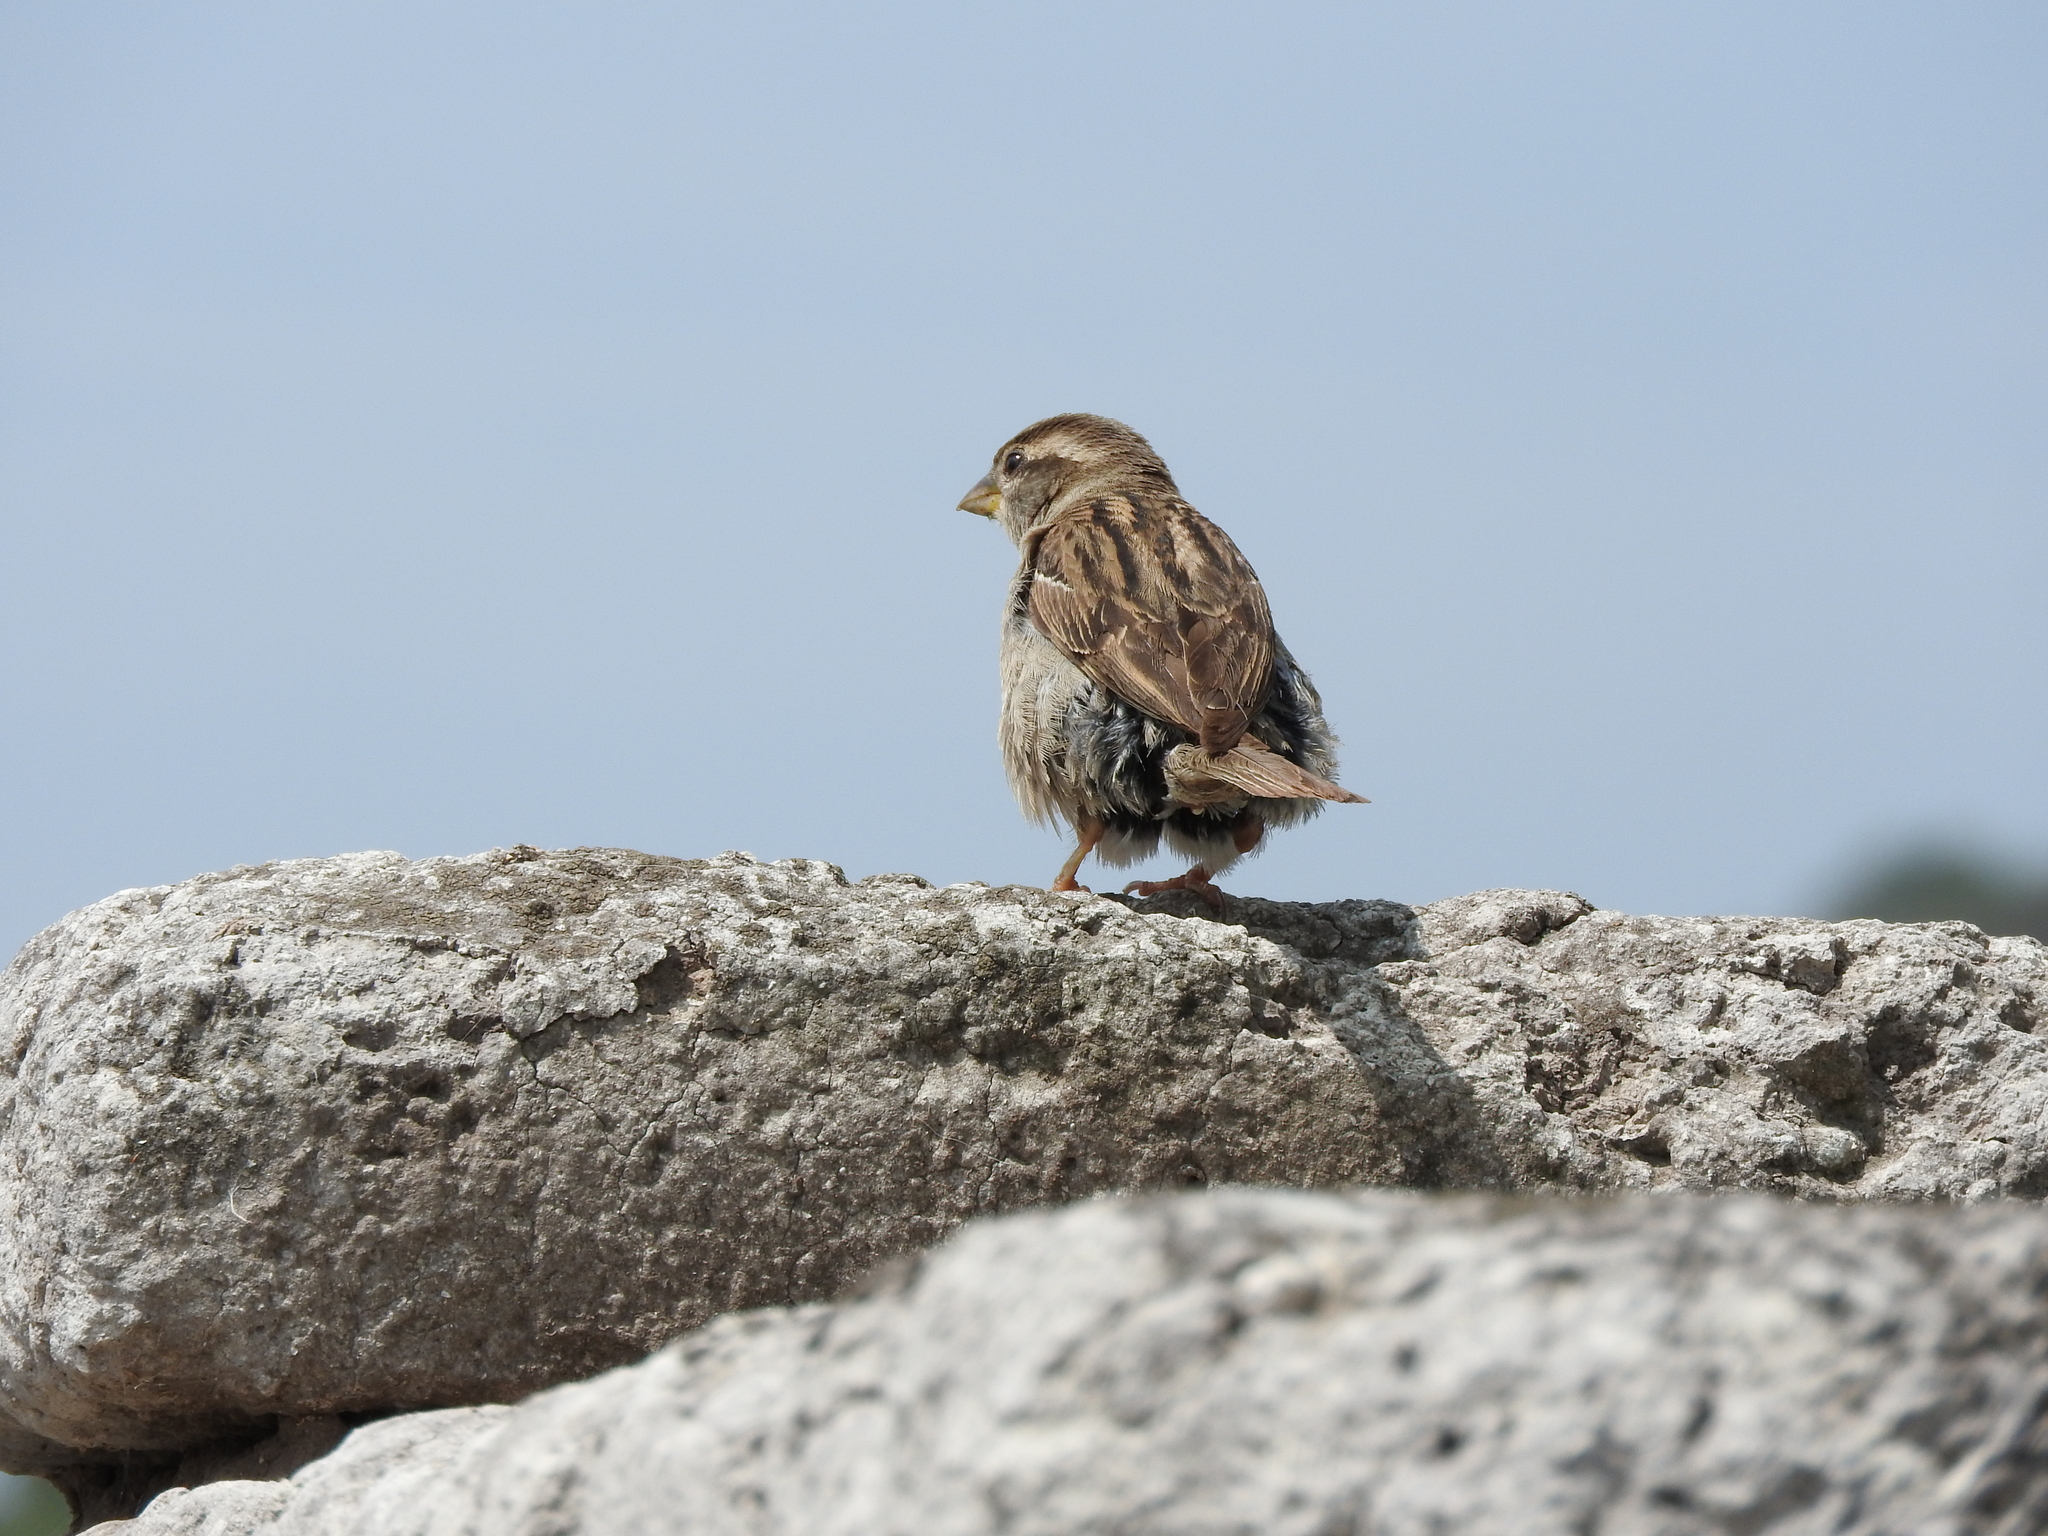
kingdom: Animalia
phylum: Chordata
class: Aves
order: Passeriformes
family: Passeridae
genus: Passer
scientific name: Passer domesticus
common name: House sparrow
